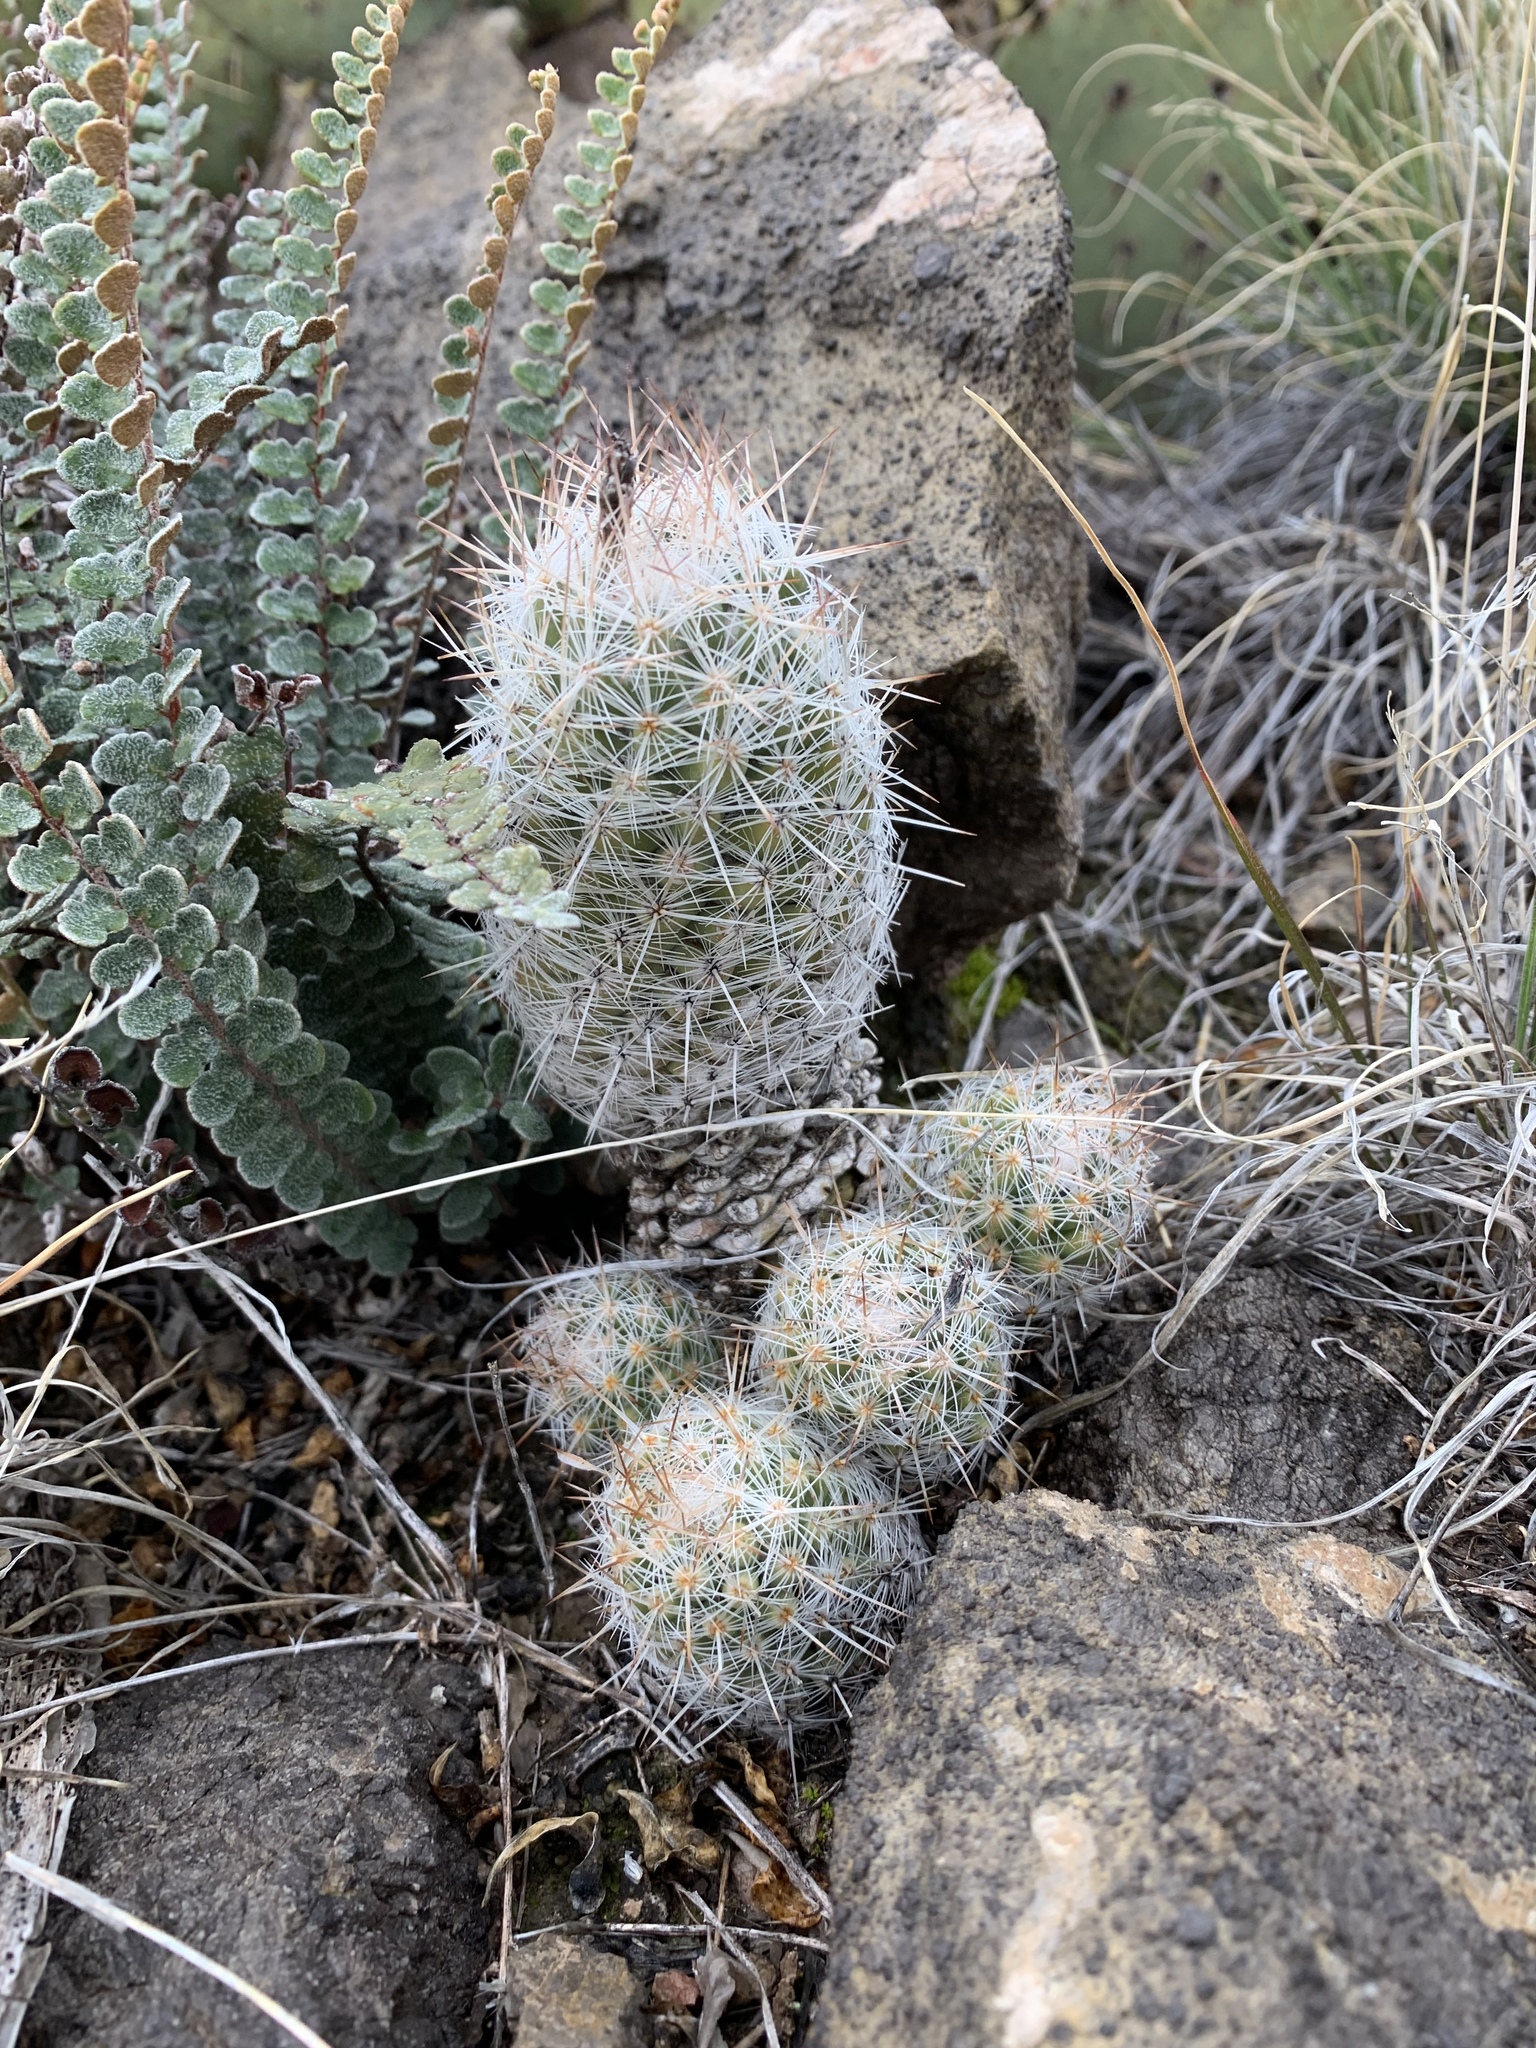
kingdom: Plantae
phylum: Tracheophyta
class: Magnoliopsida
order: Caryophyllales
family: Cactaceae
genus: Pelecyphora
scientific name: Pelecyphora tuberculosa
